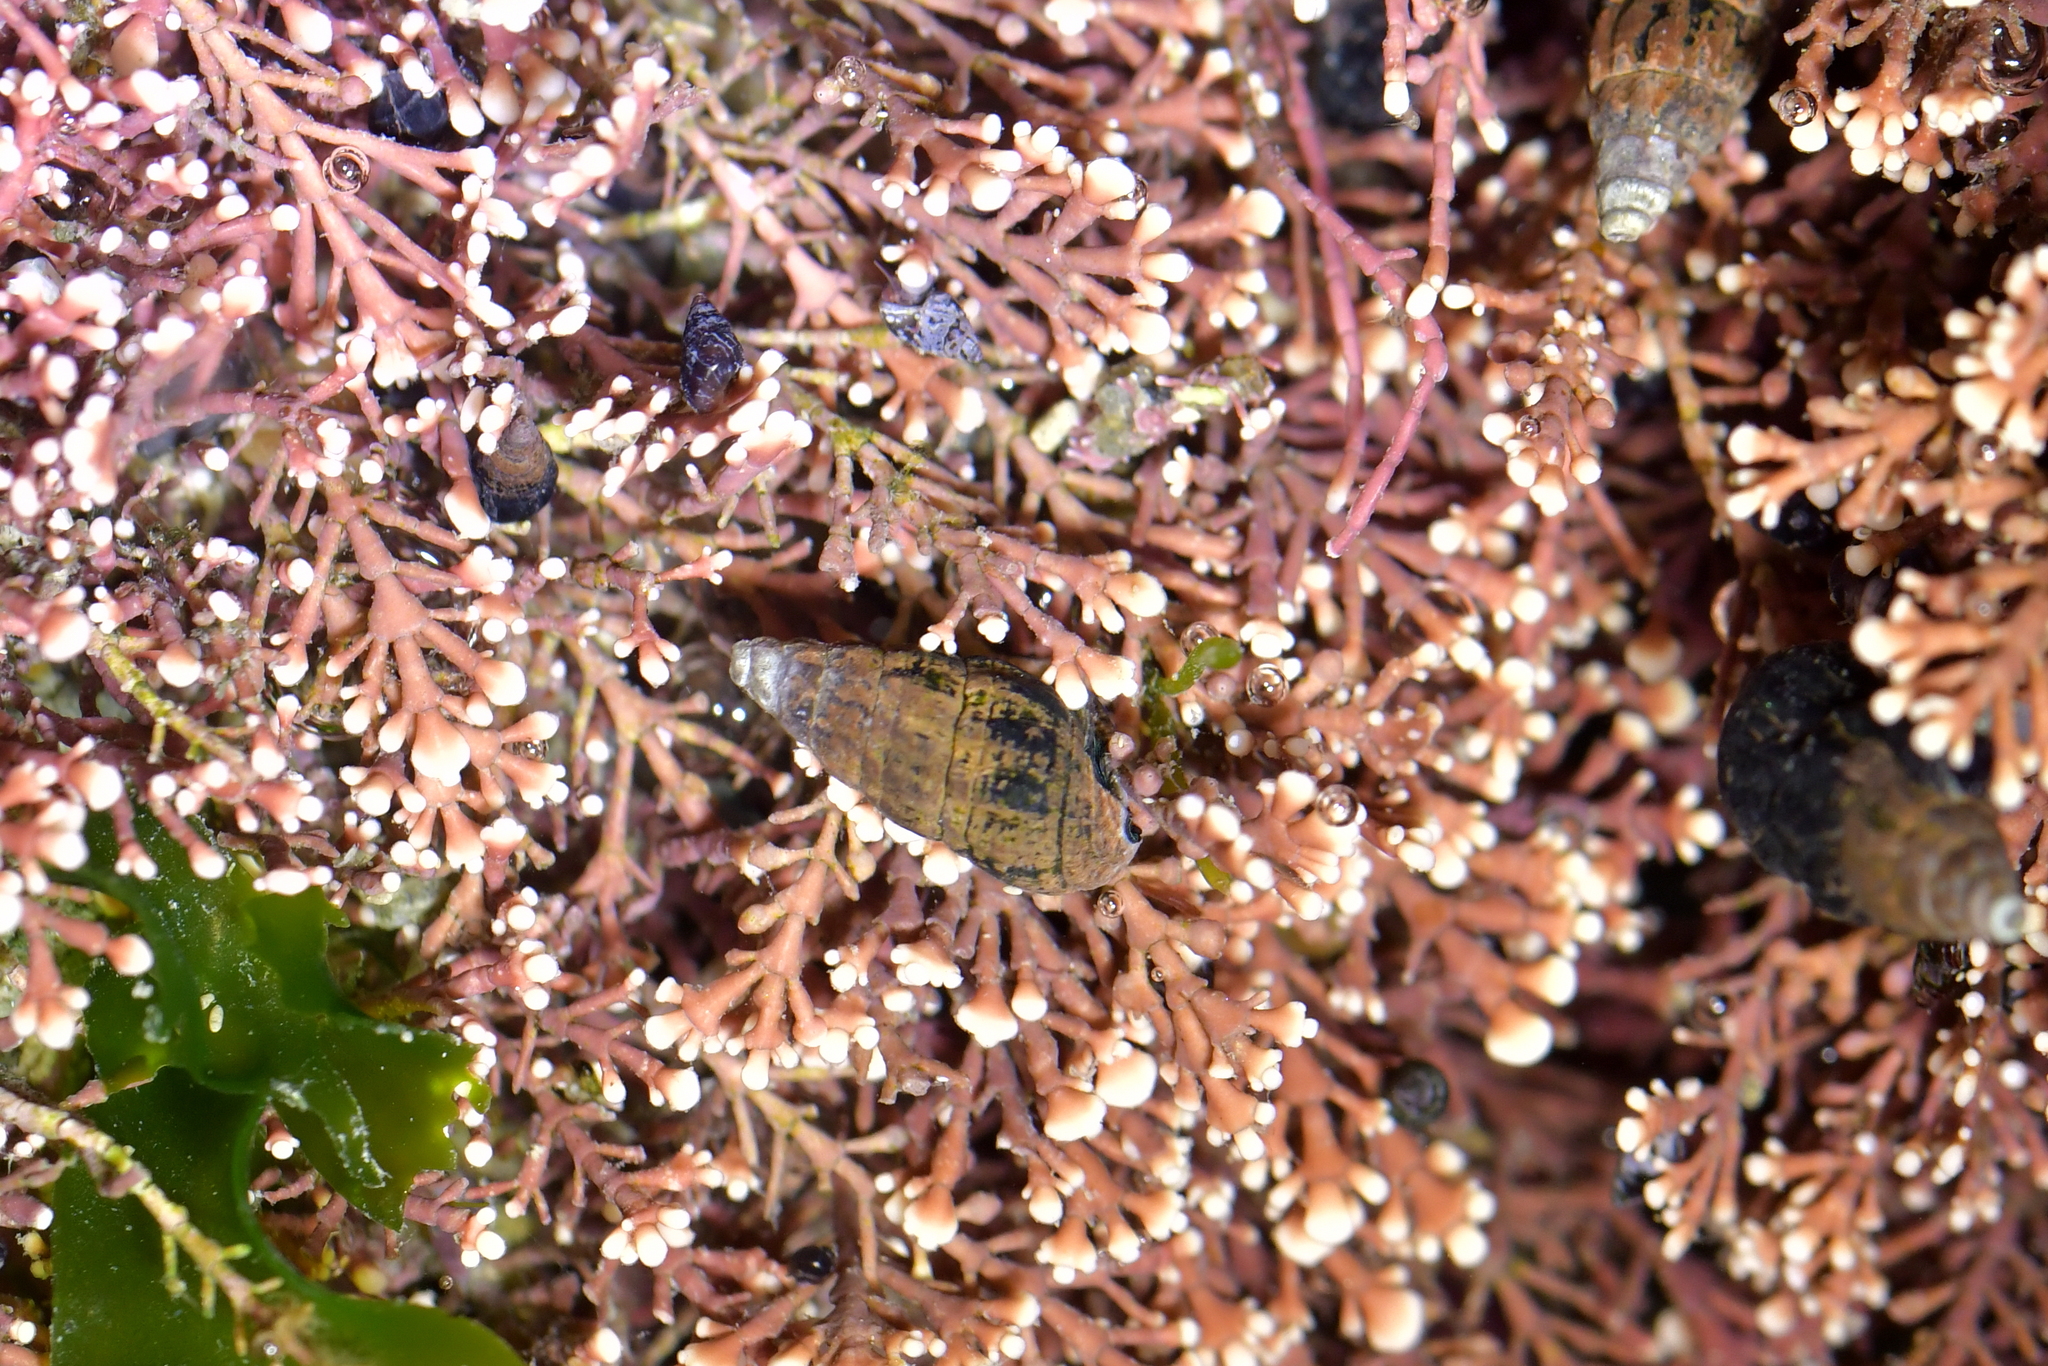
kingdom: Animalia
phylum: Mollusca
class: Gastropoda
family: Batillariidae
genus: Zeacumantus
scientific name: Zeacumantus subcarinatus
